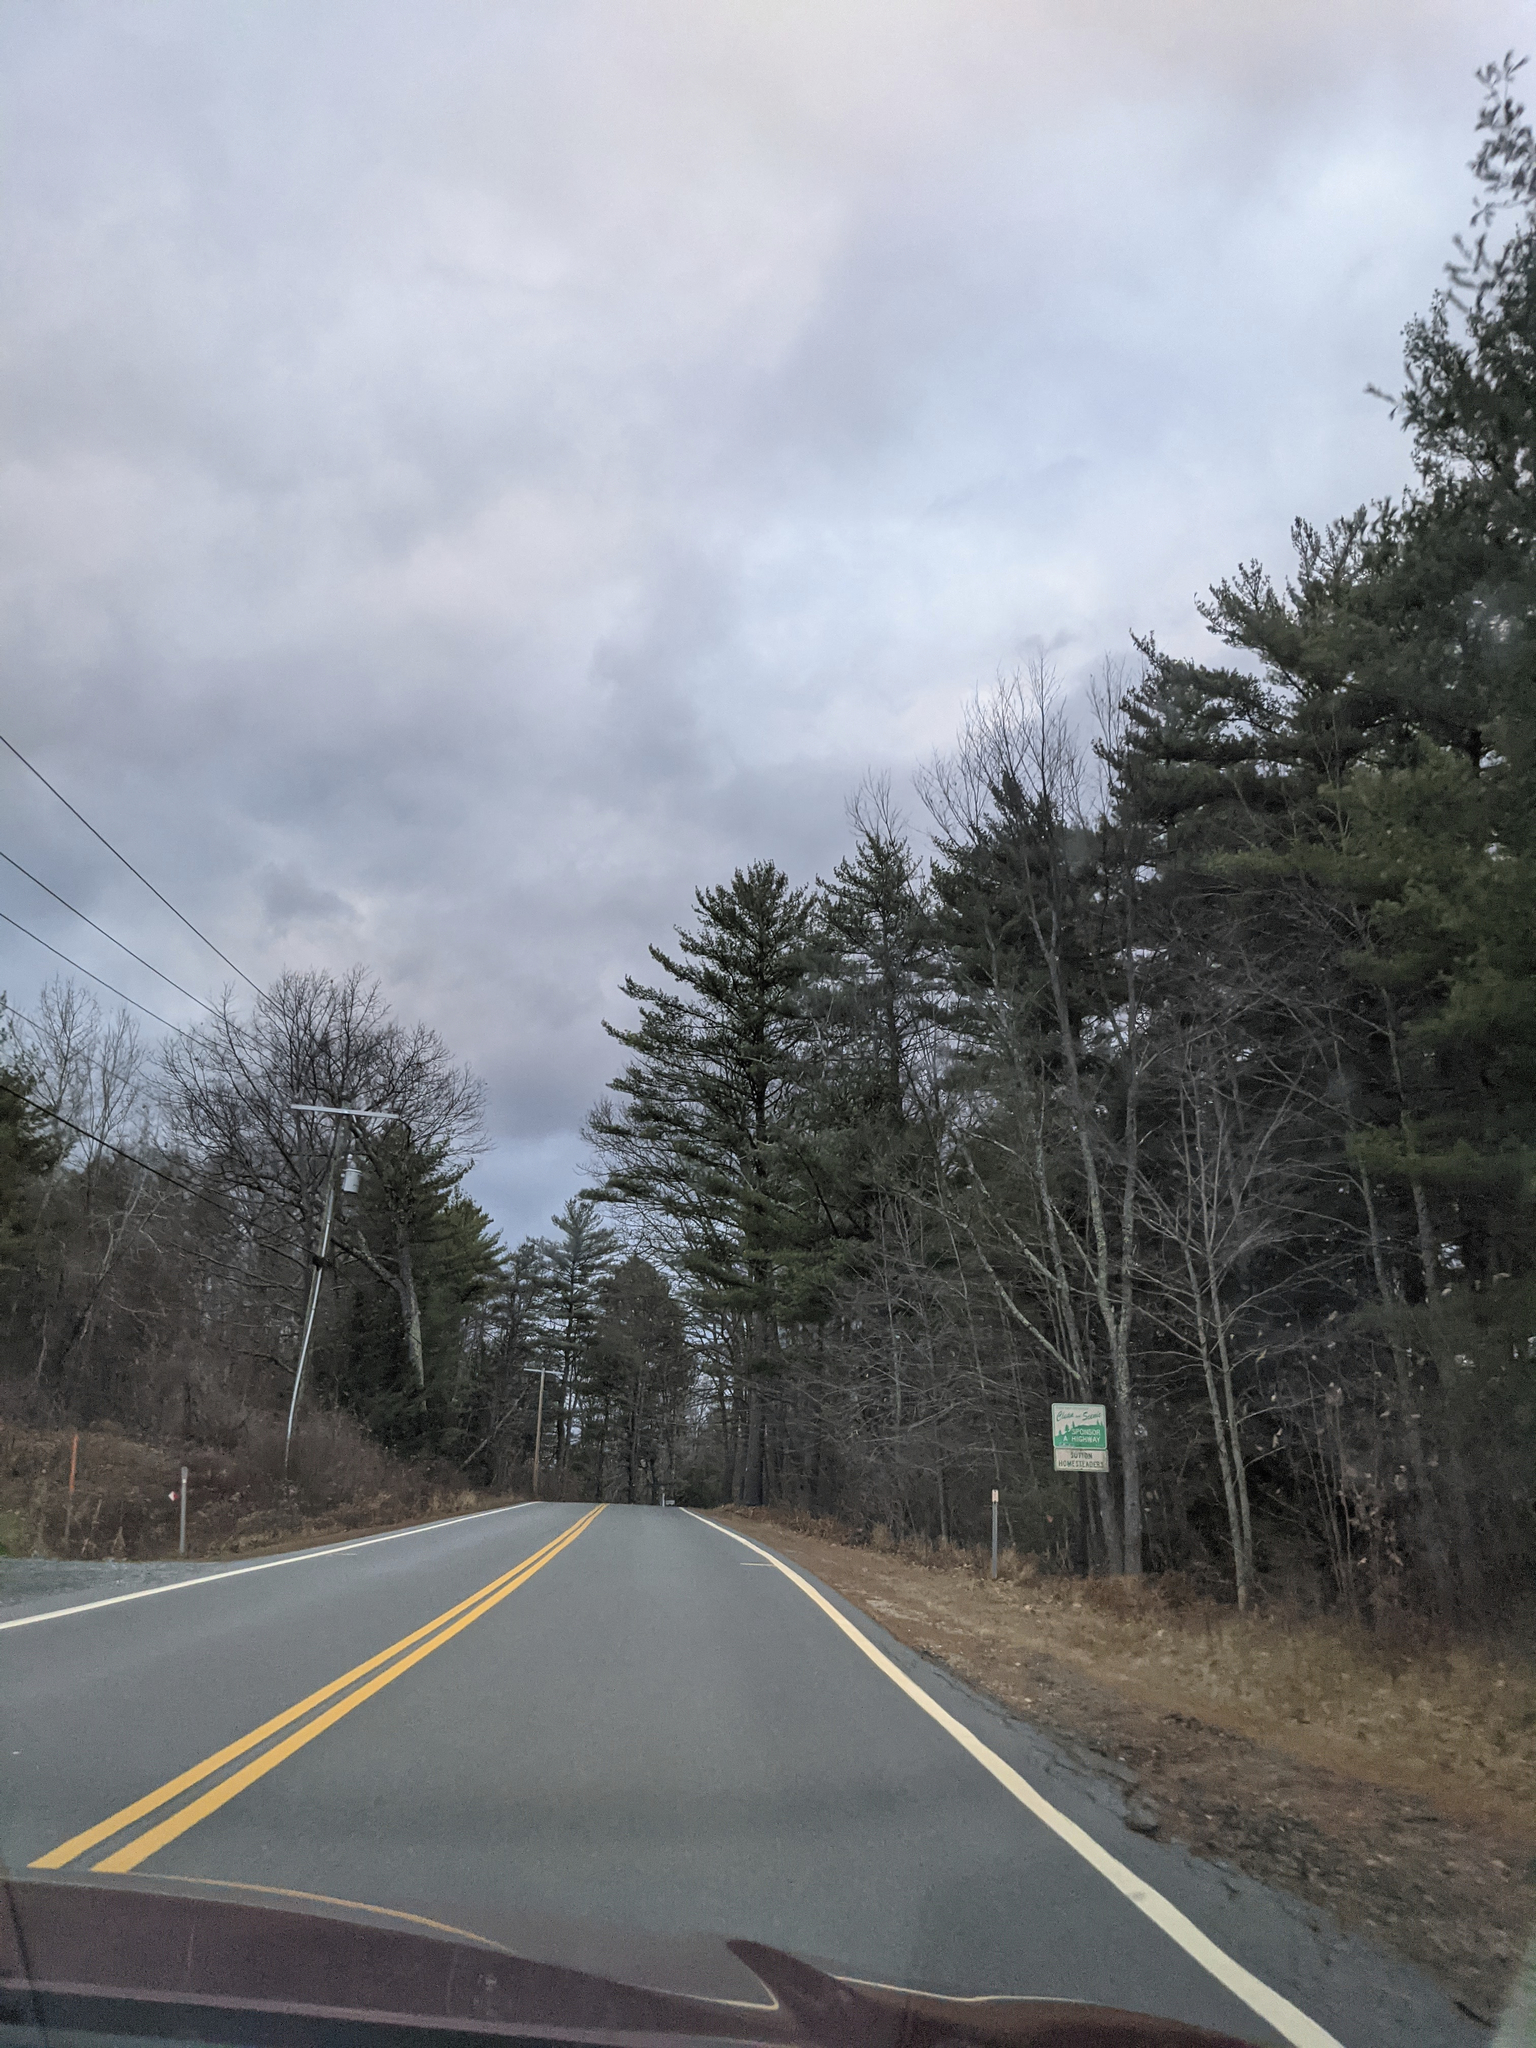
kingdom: Plantae
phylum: Tracheophyta
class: Pinopsida
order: Pinales
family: Pinaceae
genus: Pinus
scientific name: Pinus strobus
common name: Weymouth pine
